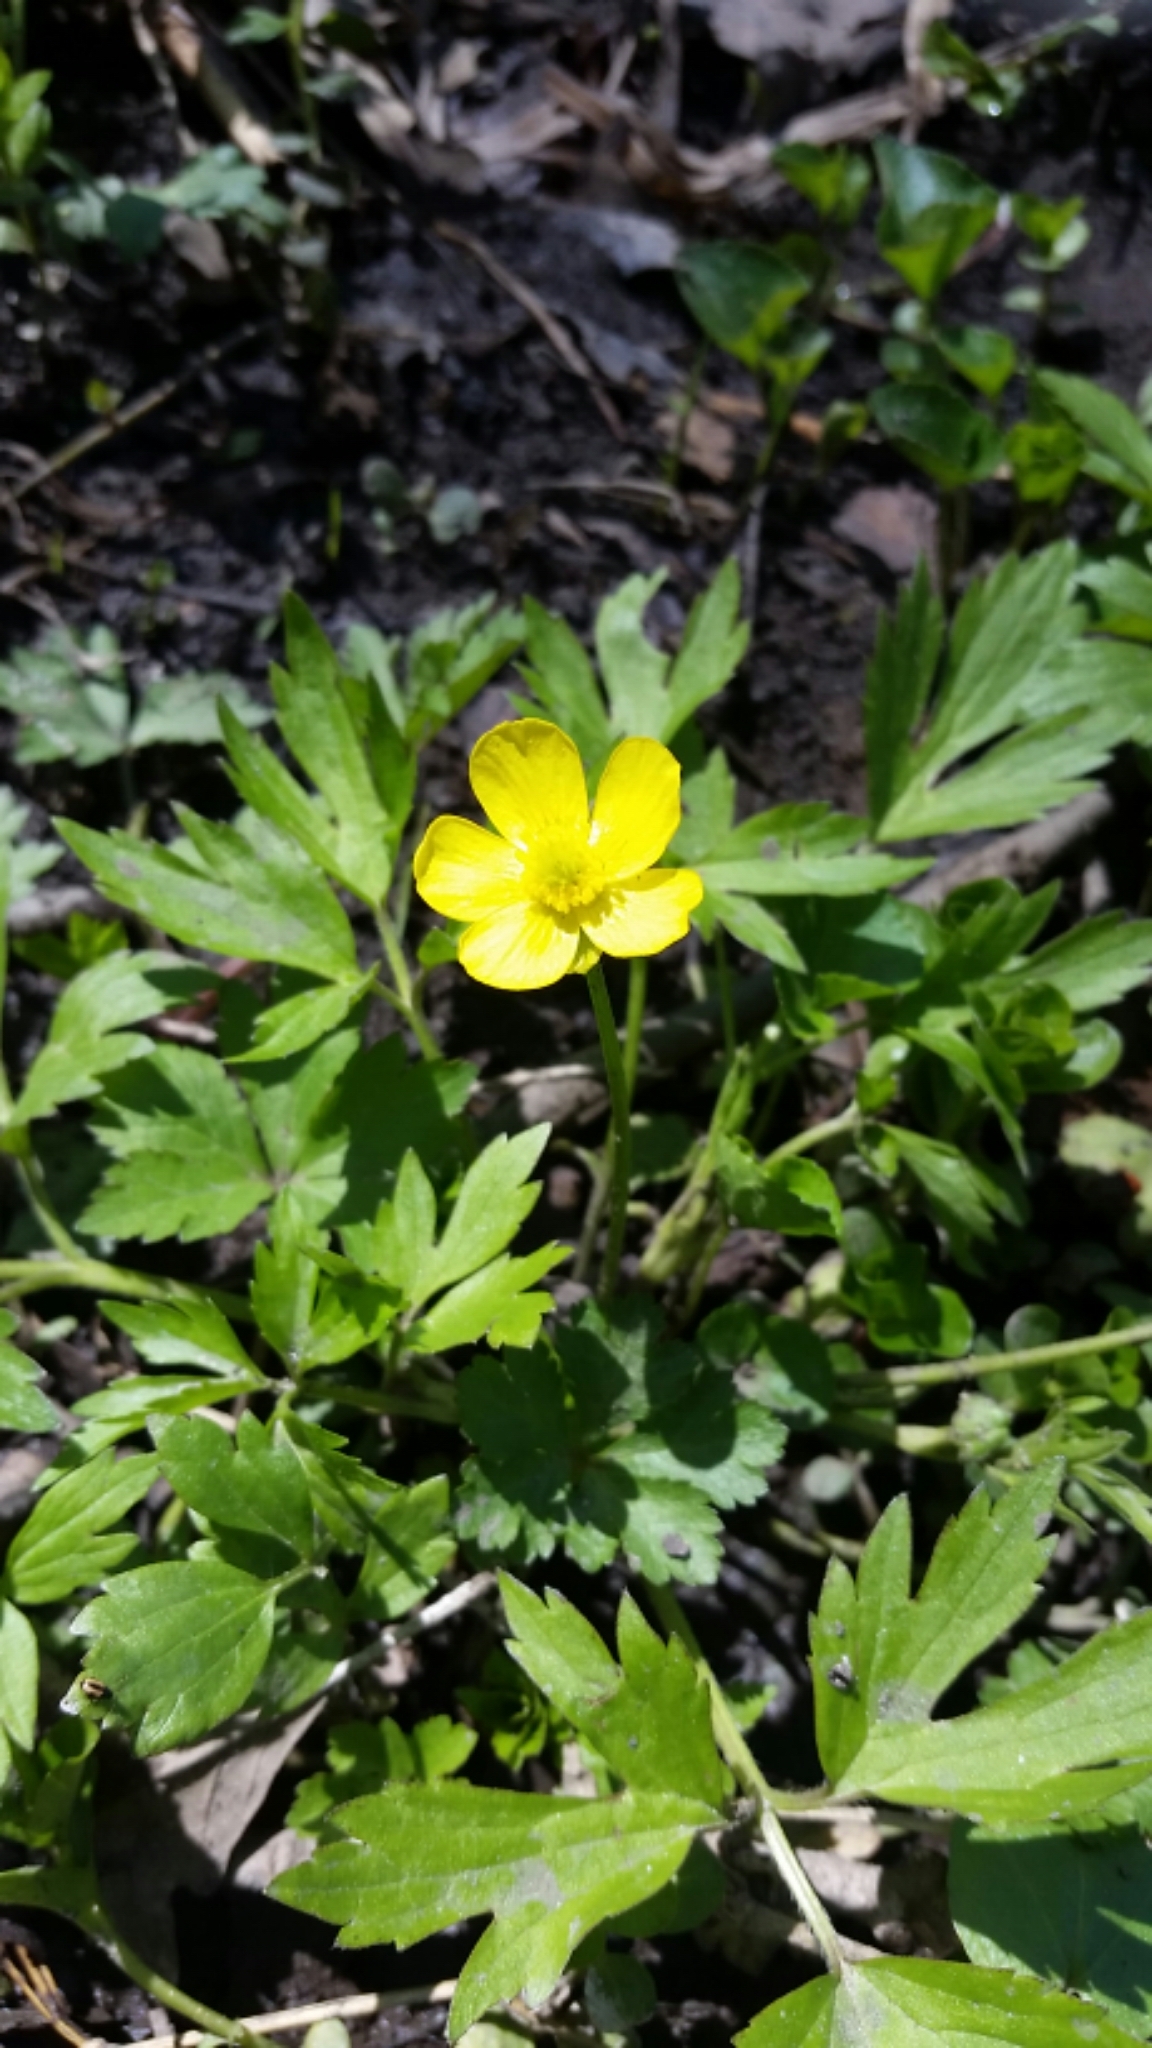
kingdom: Plantae
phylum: Tracheophyta
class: Magnoliopsida
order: Ranunculales
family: Ranunculaceae
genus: Ranunculus
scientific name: Ranunculus hispidus
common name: Bristly buttercup
